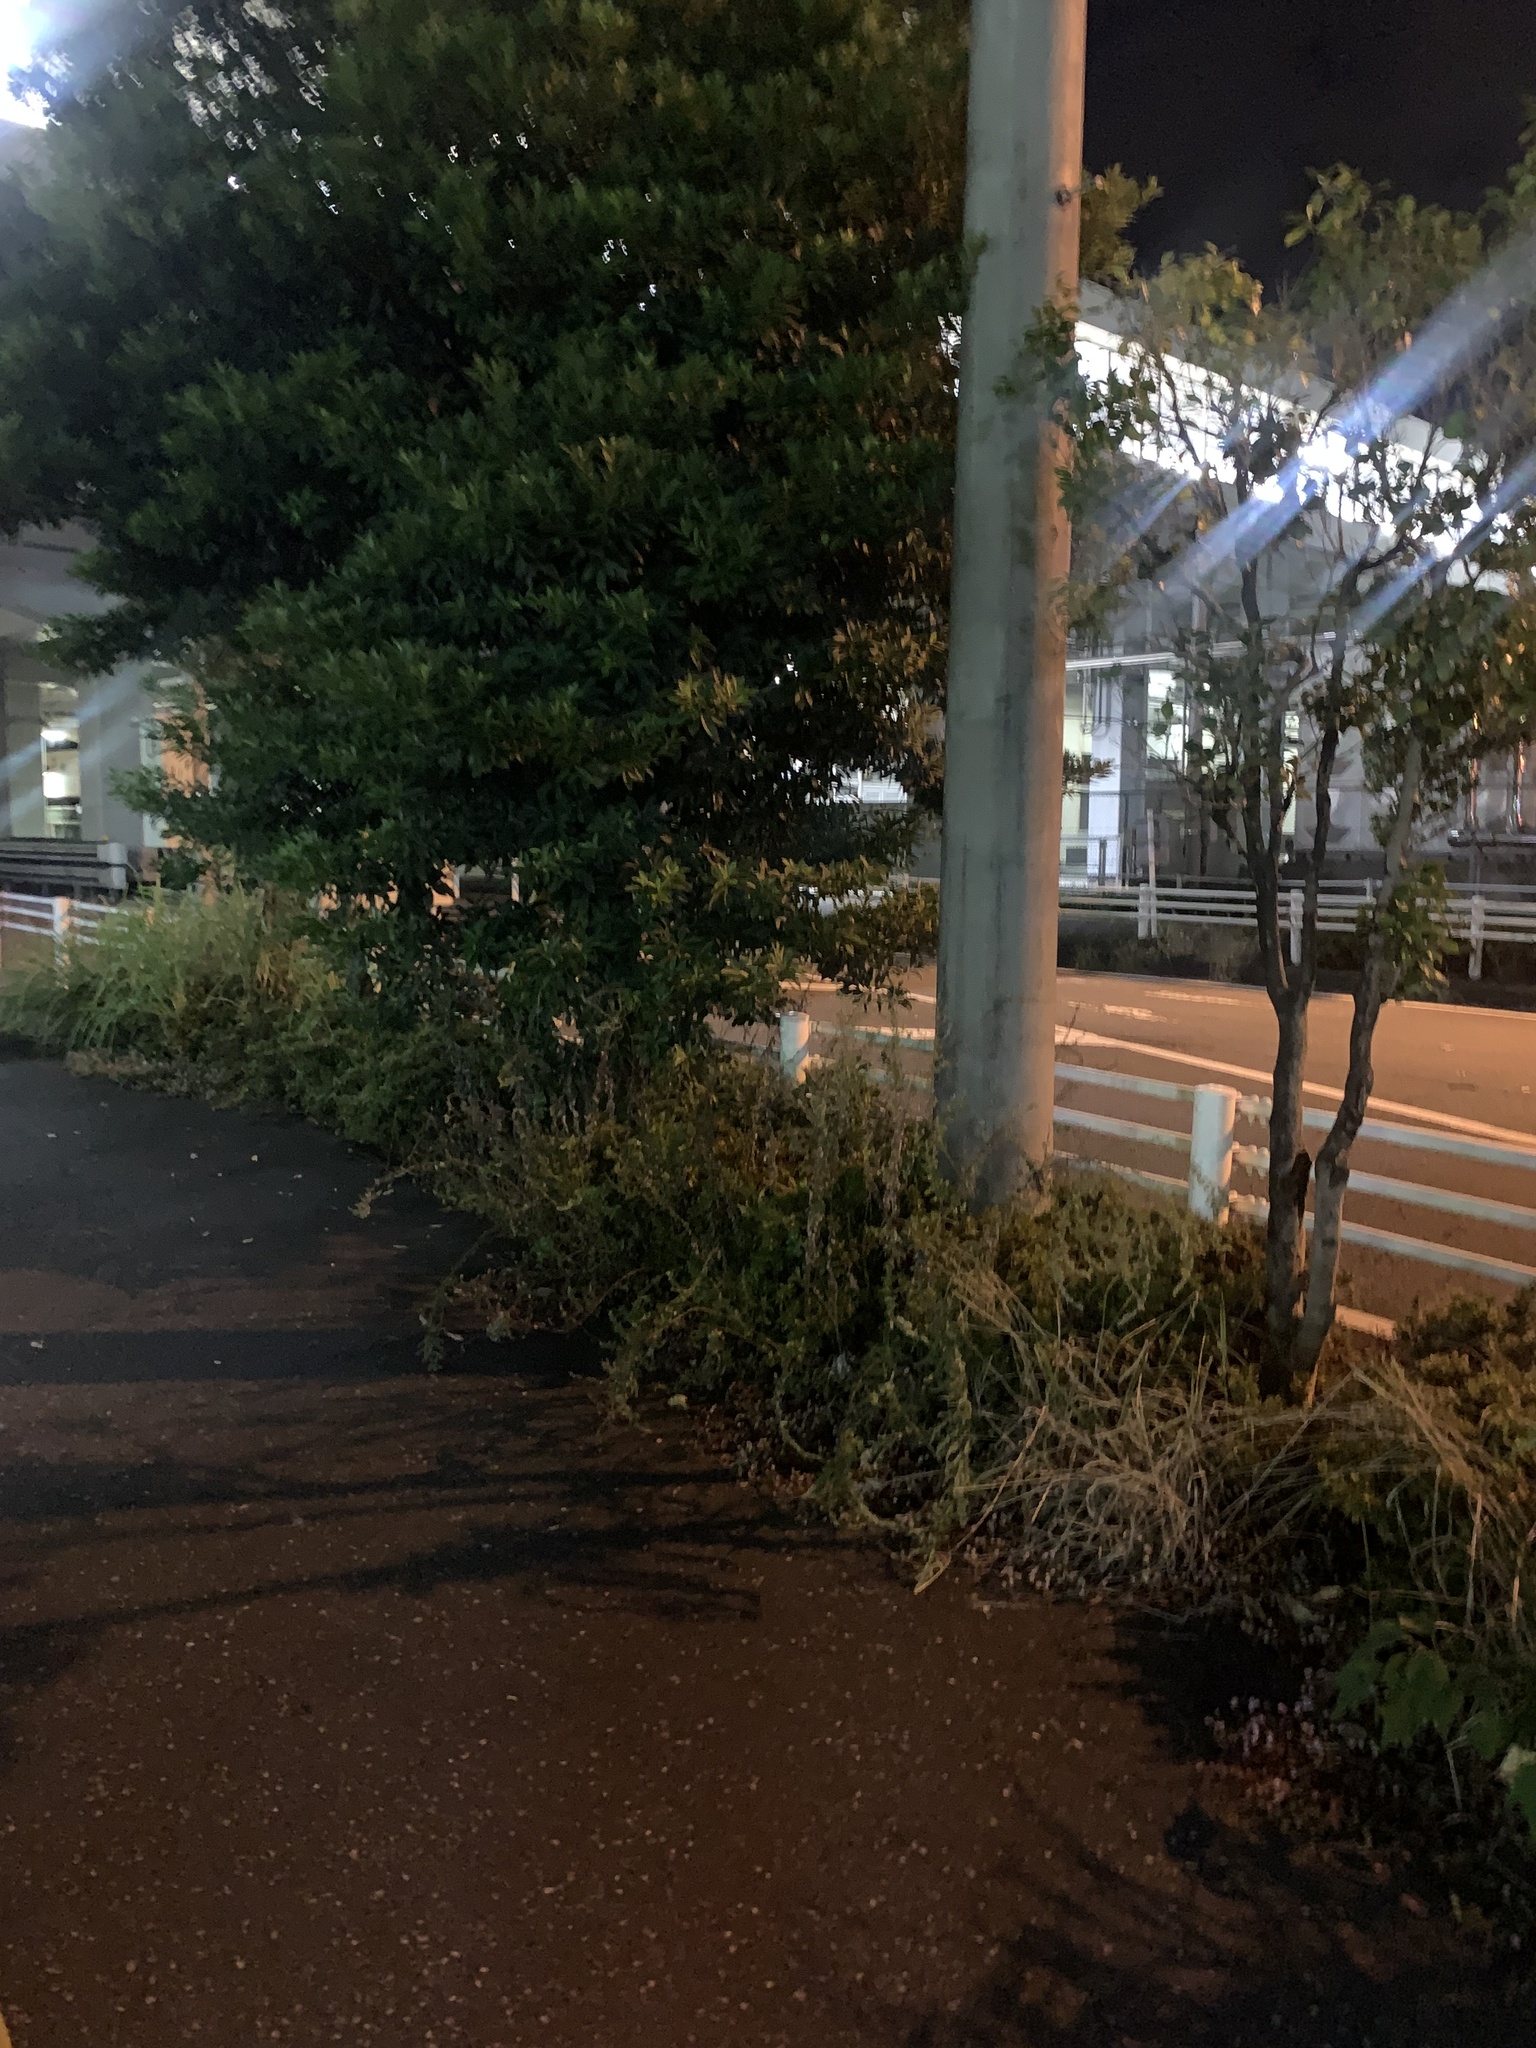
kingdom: Animalia
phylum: Arthropoda
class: Insecta
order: Orthoptera
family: Gryllidae
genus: Teleogryllus
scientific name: Teleogryllus emma
